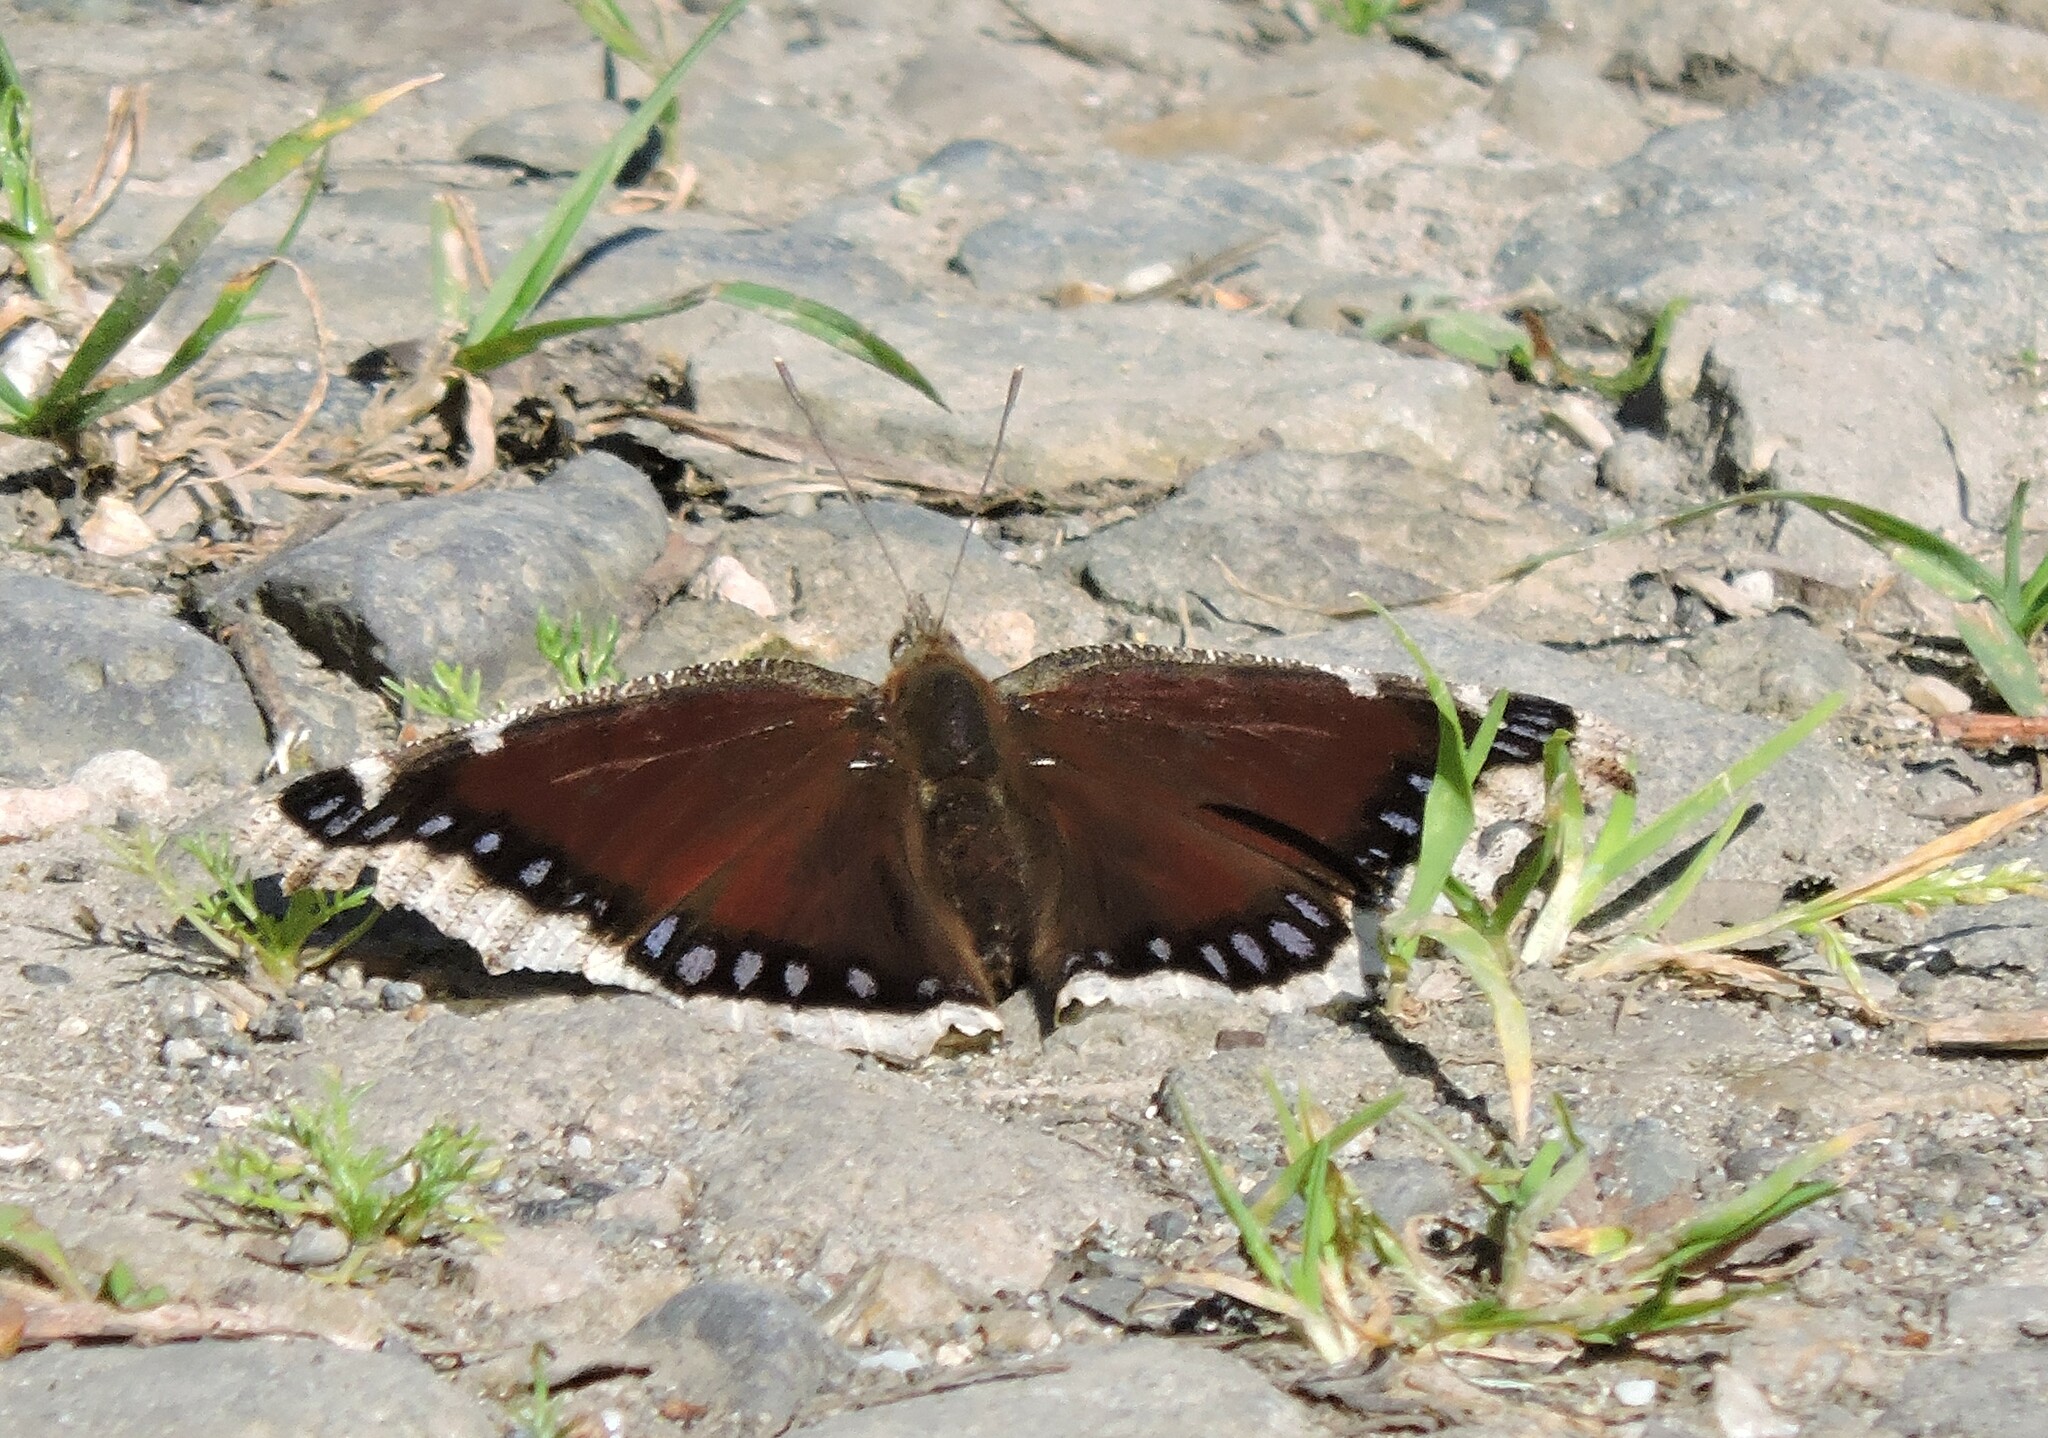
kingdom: Animalia
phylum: Arthropoda
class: Insecta
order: Lepidoptera
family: Nymphalidae
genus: Nymphalis
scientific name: Nymphalis antiopa
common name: Camberwell beauty
